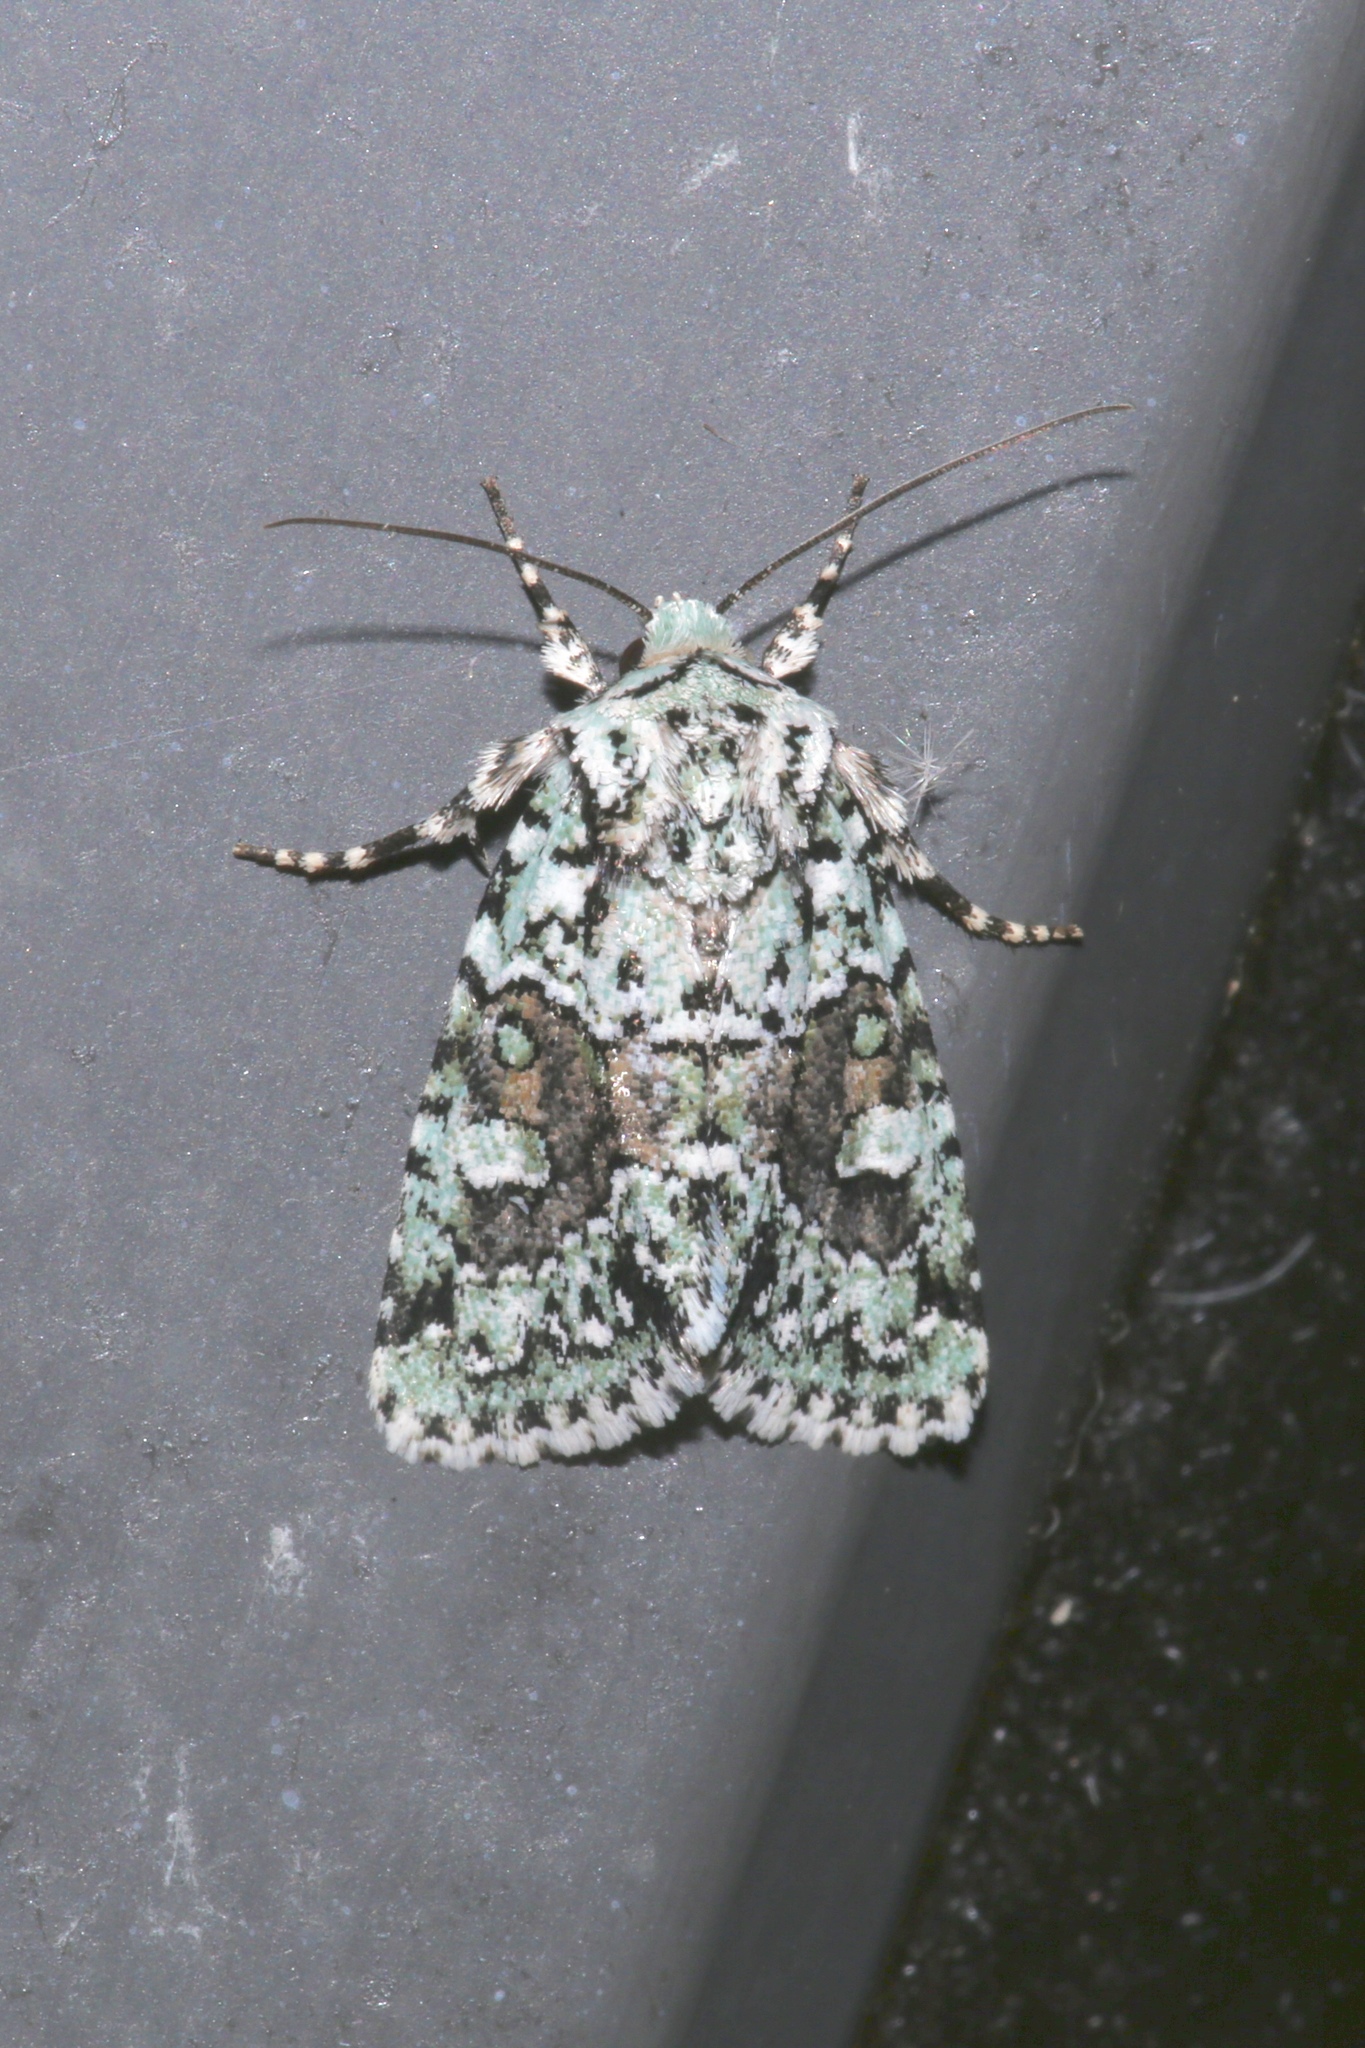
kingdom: Animalia
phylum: Arthropoda
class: Insecta
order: Lepidoptera
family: Noctuidae
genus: Lacinipolia
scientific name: Lacinipolia implicata
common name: Implicit arches
